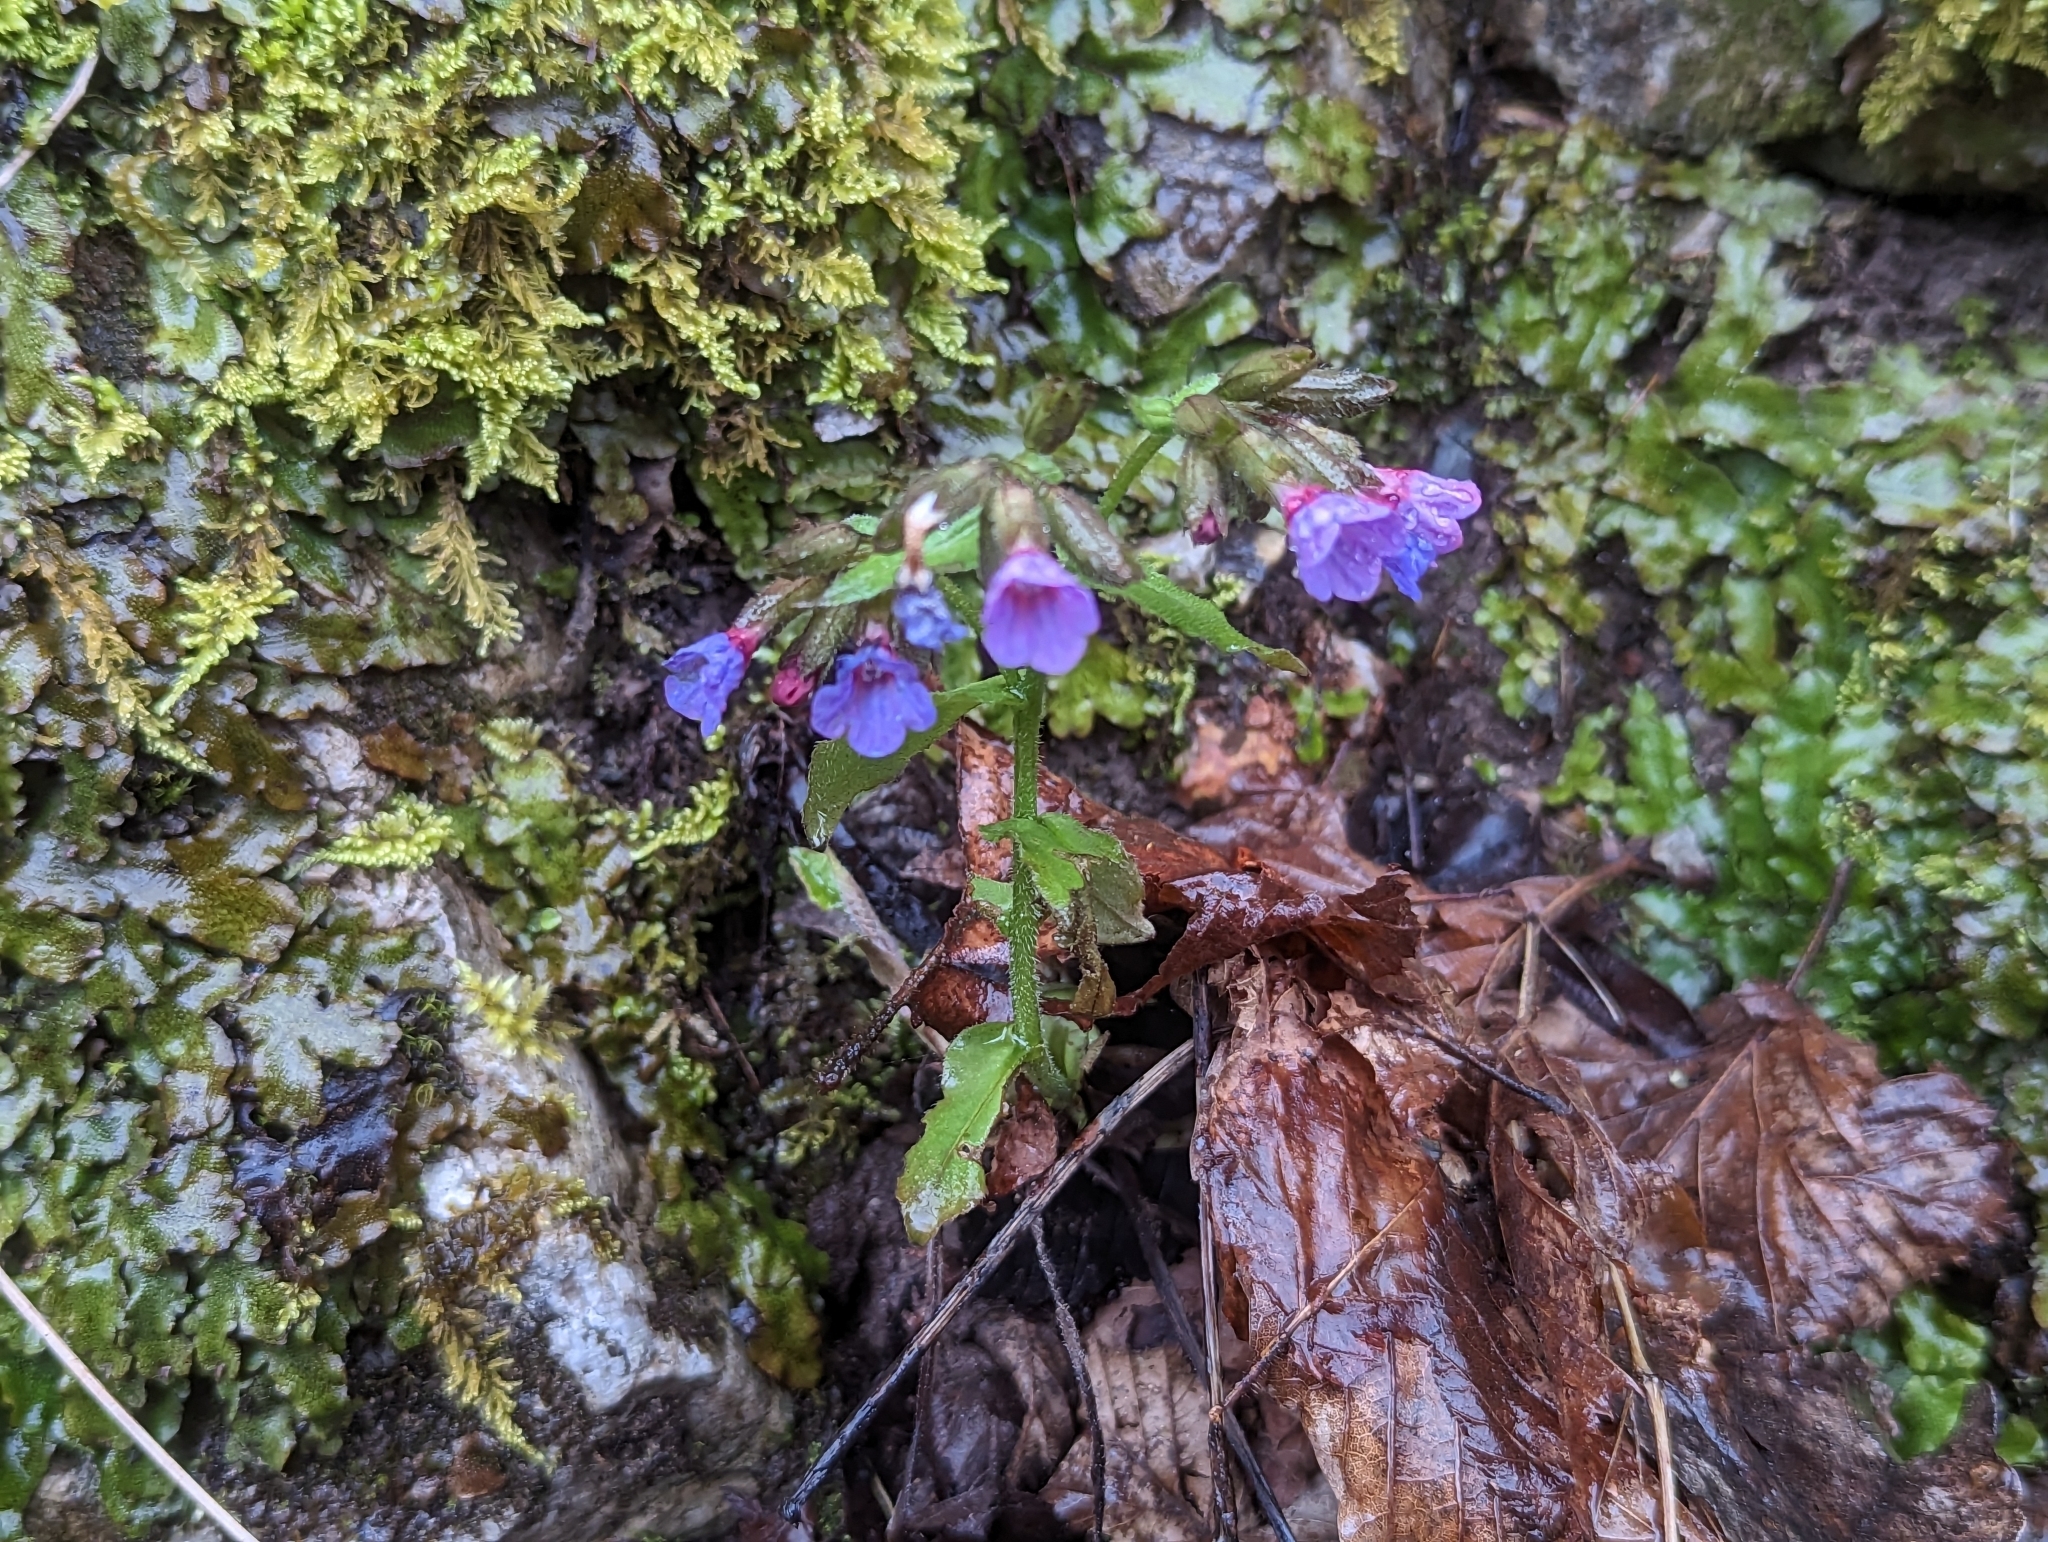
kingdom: Plantae
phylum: Tracheophyta
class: Magnoliopsida
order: Boraginales
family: Boraginaceae
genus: Pulmonaria
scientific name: Pulmonaria officinalis
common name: Lungwort
